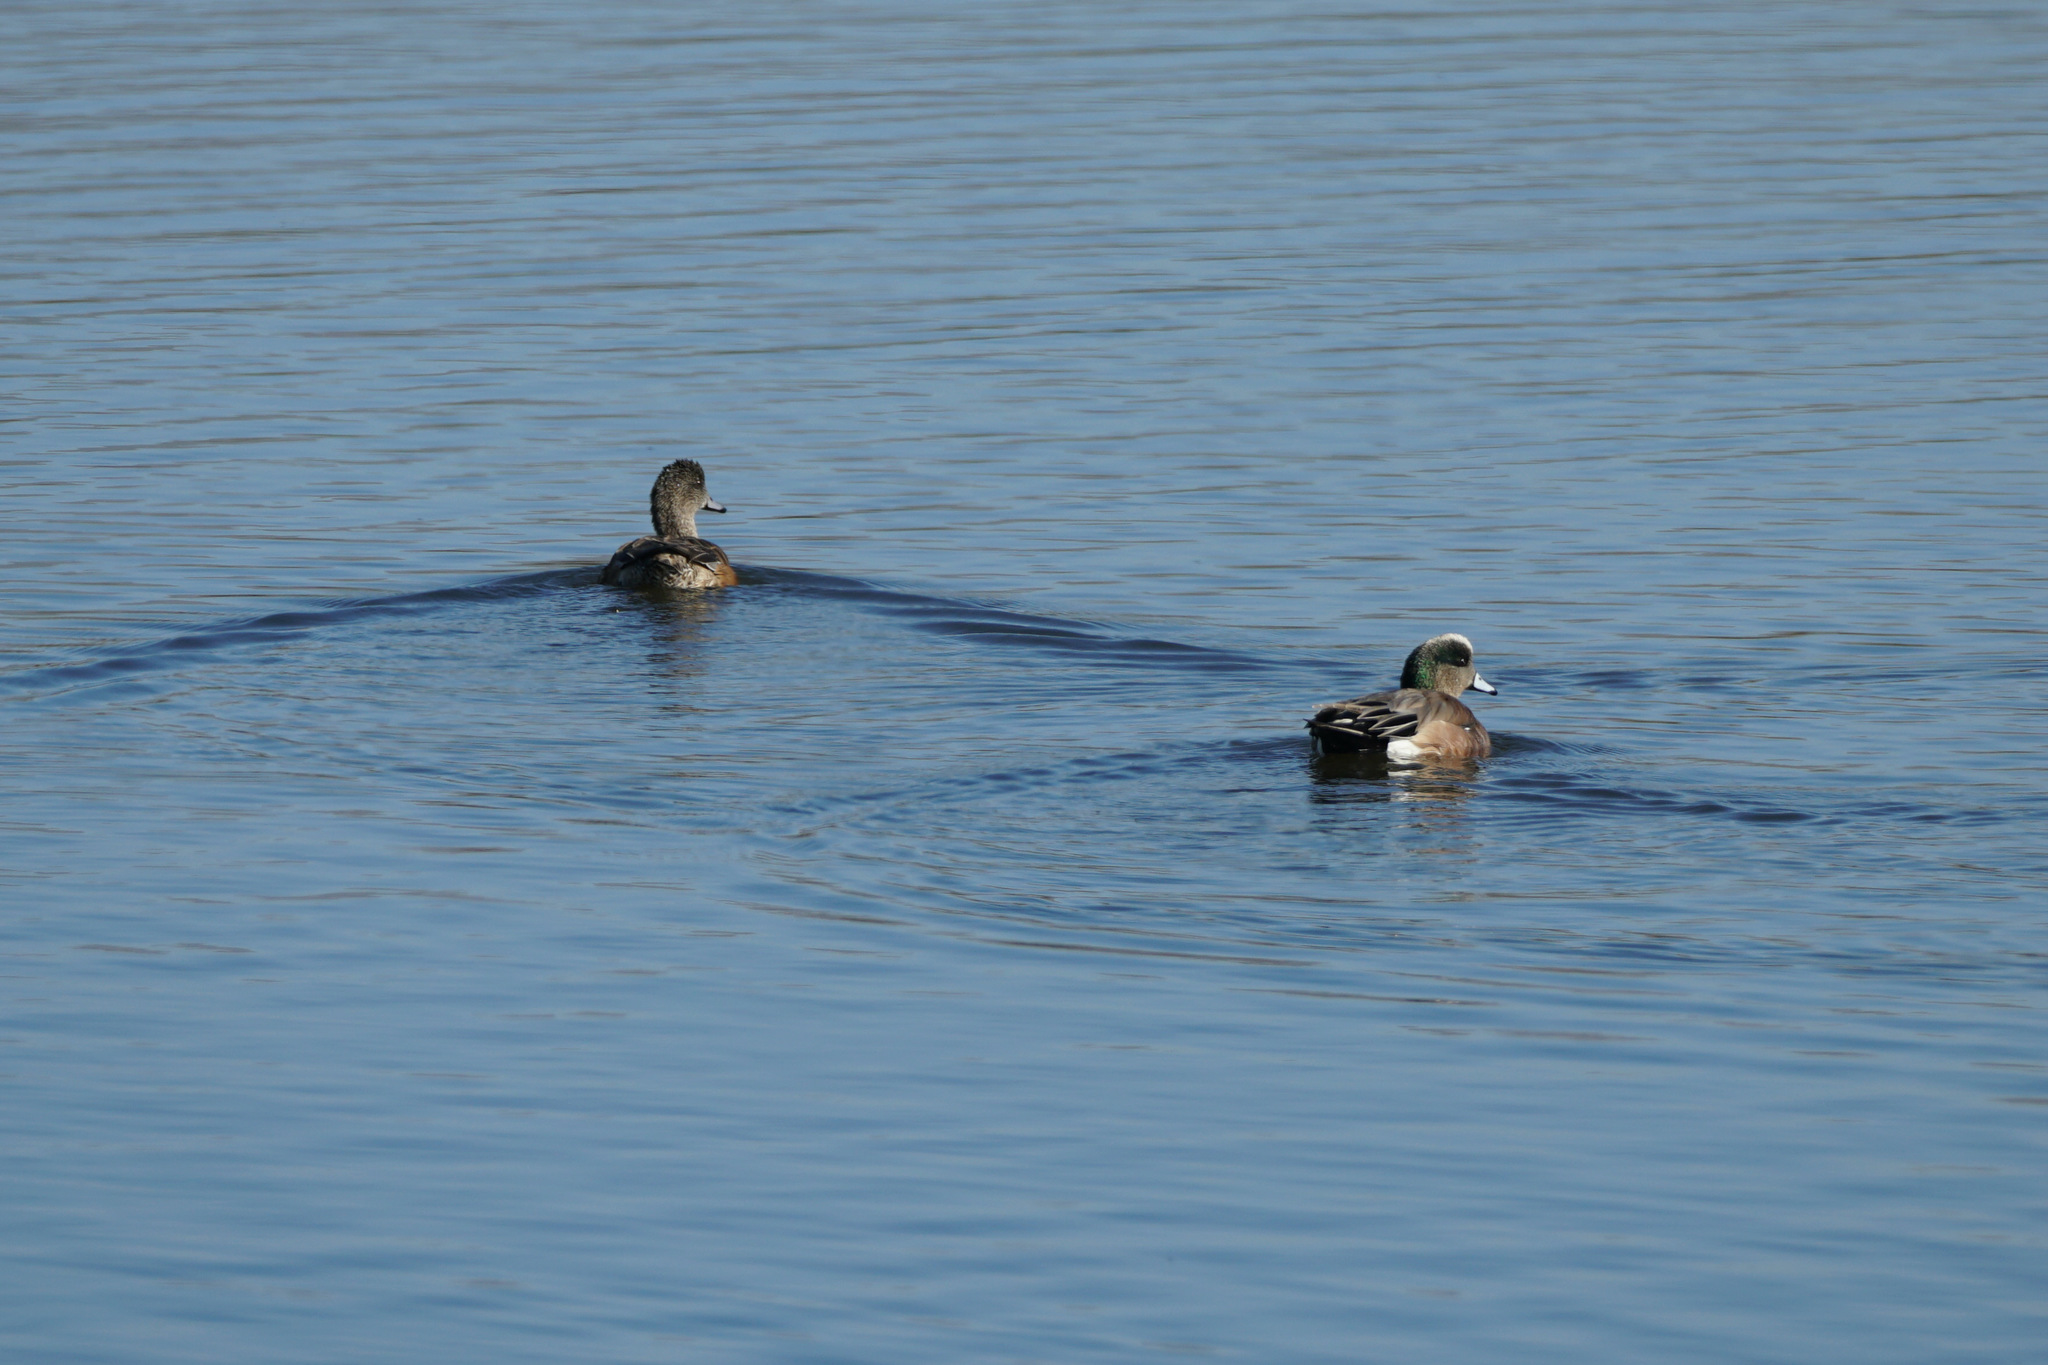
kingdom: Animalia
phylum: Chordata
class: Aves
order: Anseriformes
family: Anatidae
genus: Mareca
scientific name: Mareca americana
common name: American wigeon
